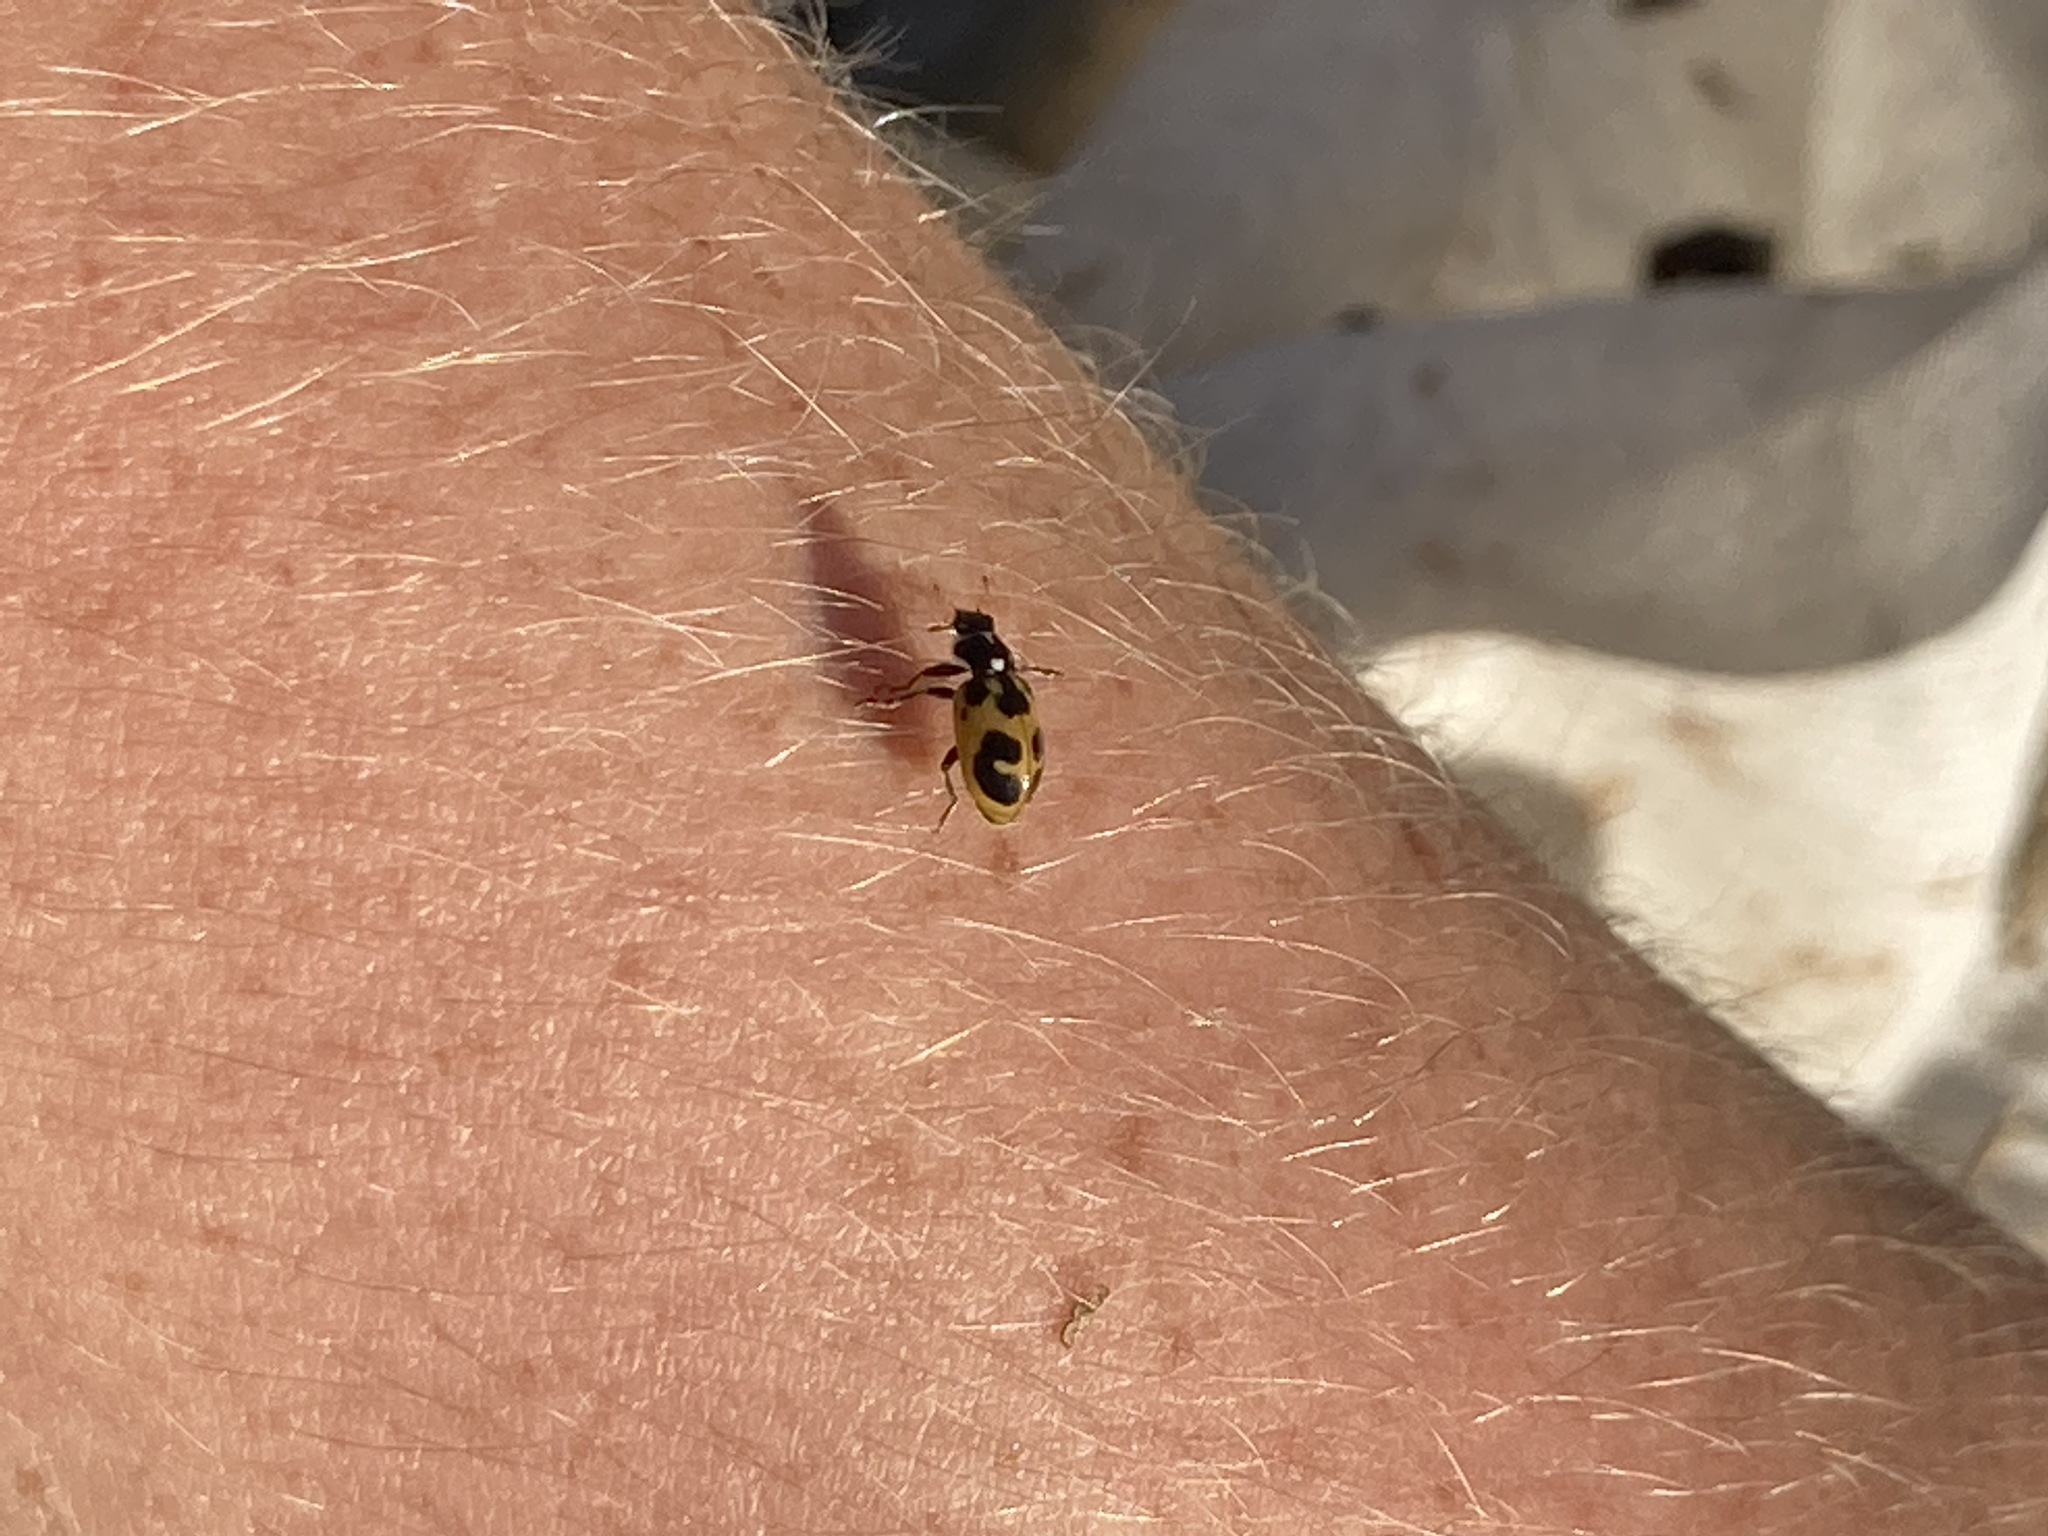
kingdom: Animalia
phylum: Arthropoda
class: Insecta
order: Coleoptera
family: Coccinellidae
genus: Hippodamia
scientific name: Hippodamia parenthesis
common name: Parenthesis lady beetle
